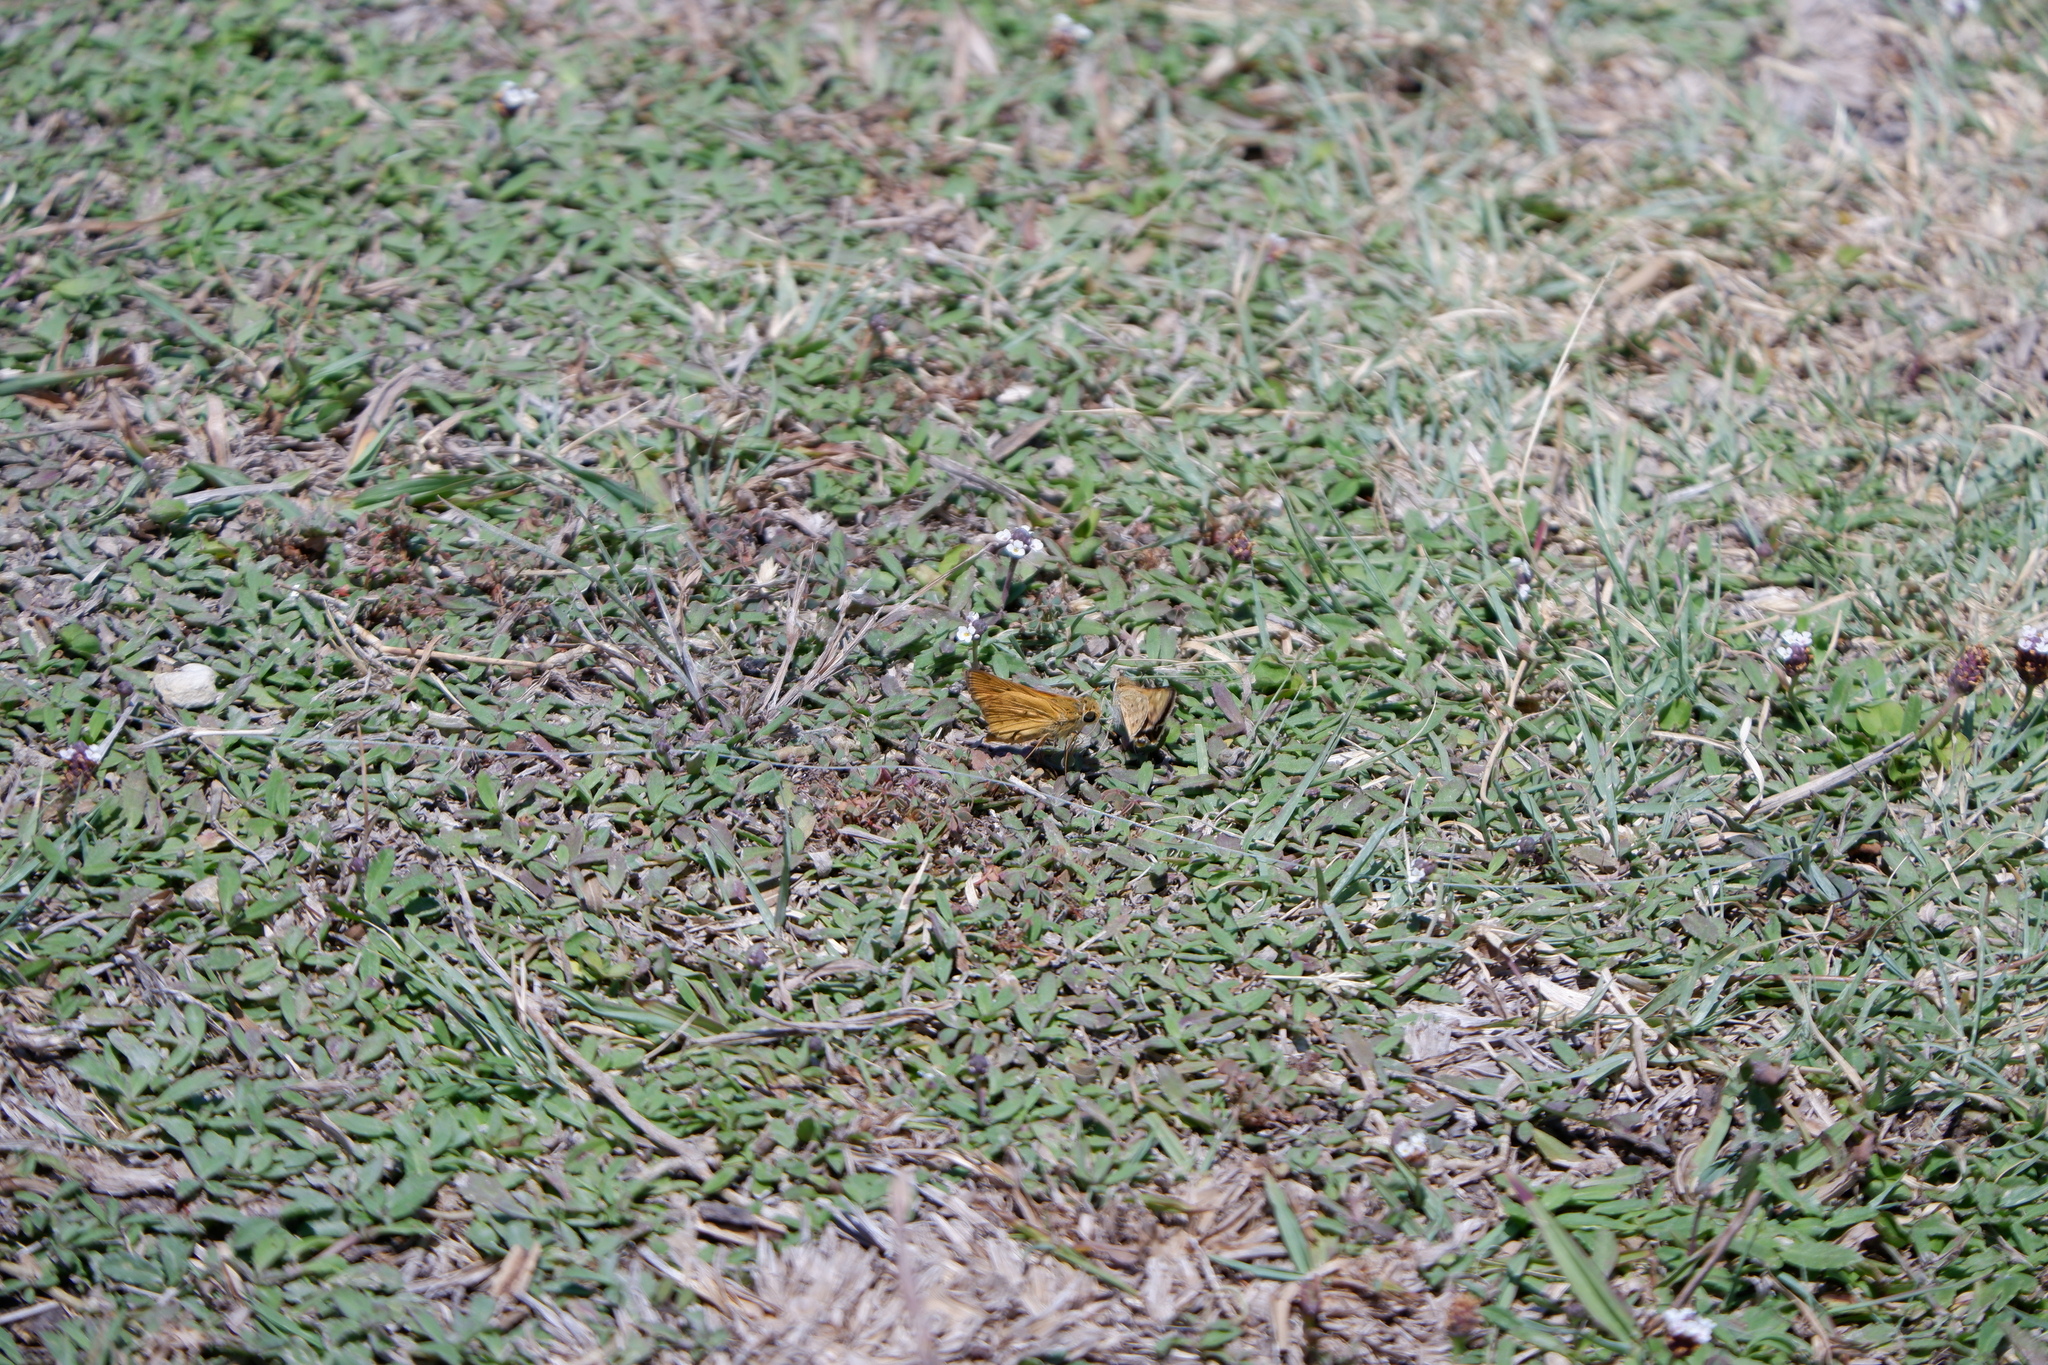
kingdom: Animalia
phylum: Arthropoda
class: Insecta
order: Lepidoptera
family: Hesperiidae
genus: Hylephila
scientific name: Hylephila phyleus
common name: Fiery skipper
